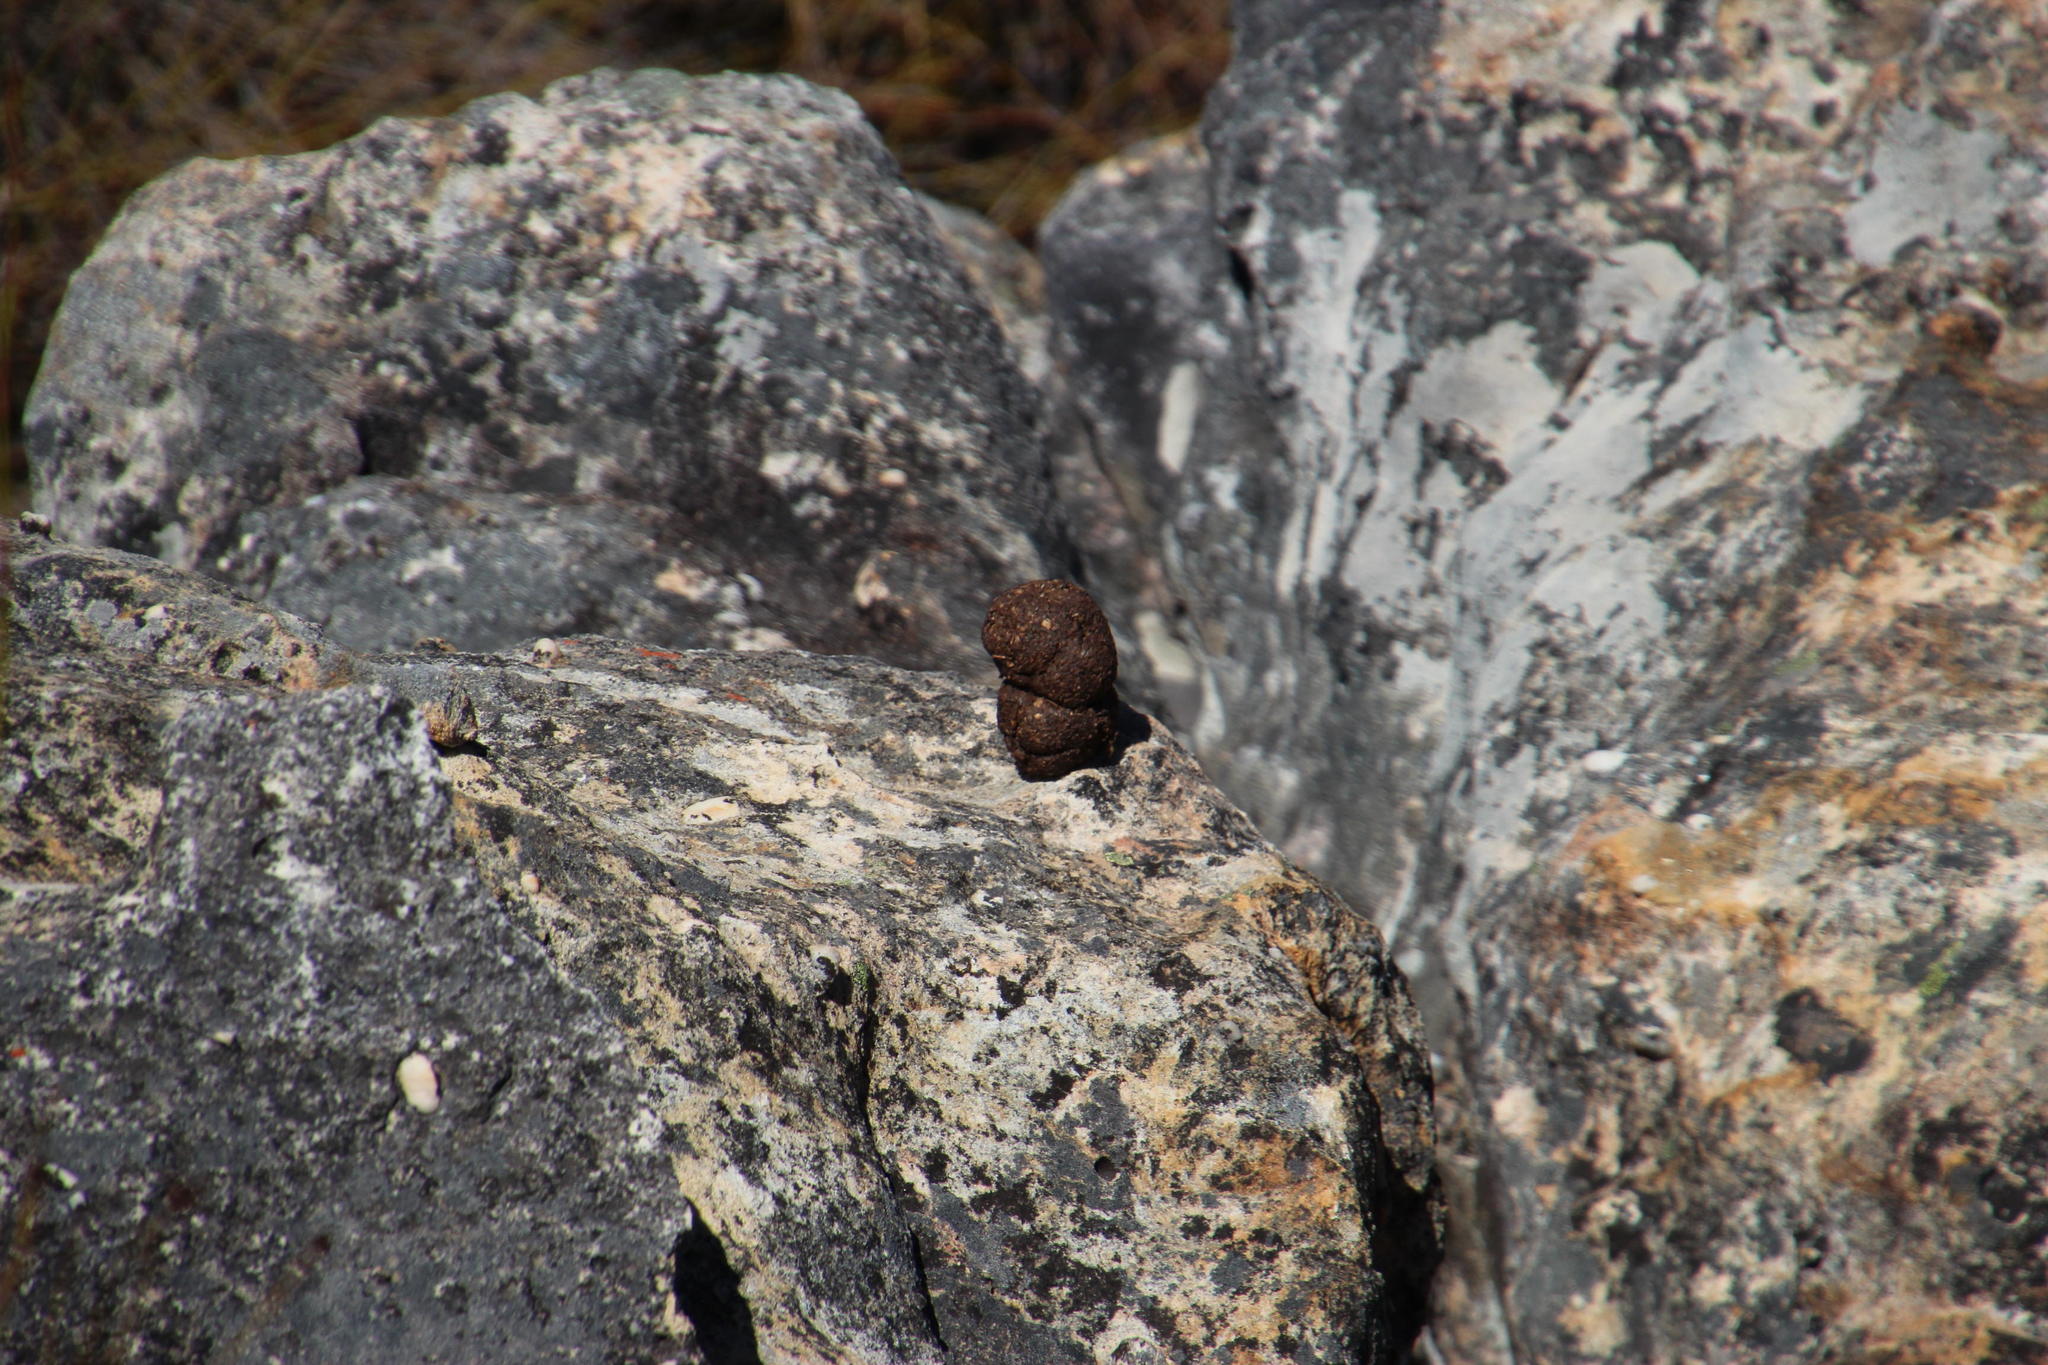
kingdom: Animalia
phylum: Chordata
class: Mammalia
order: Primates
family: Cercopithecidae
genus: Papio
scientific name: Papio ursinus
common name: Chacma baboon
